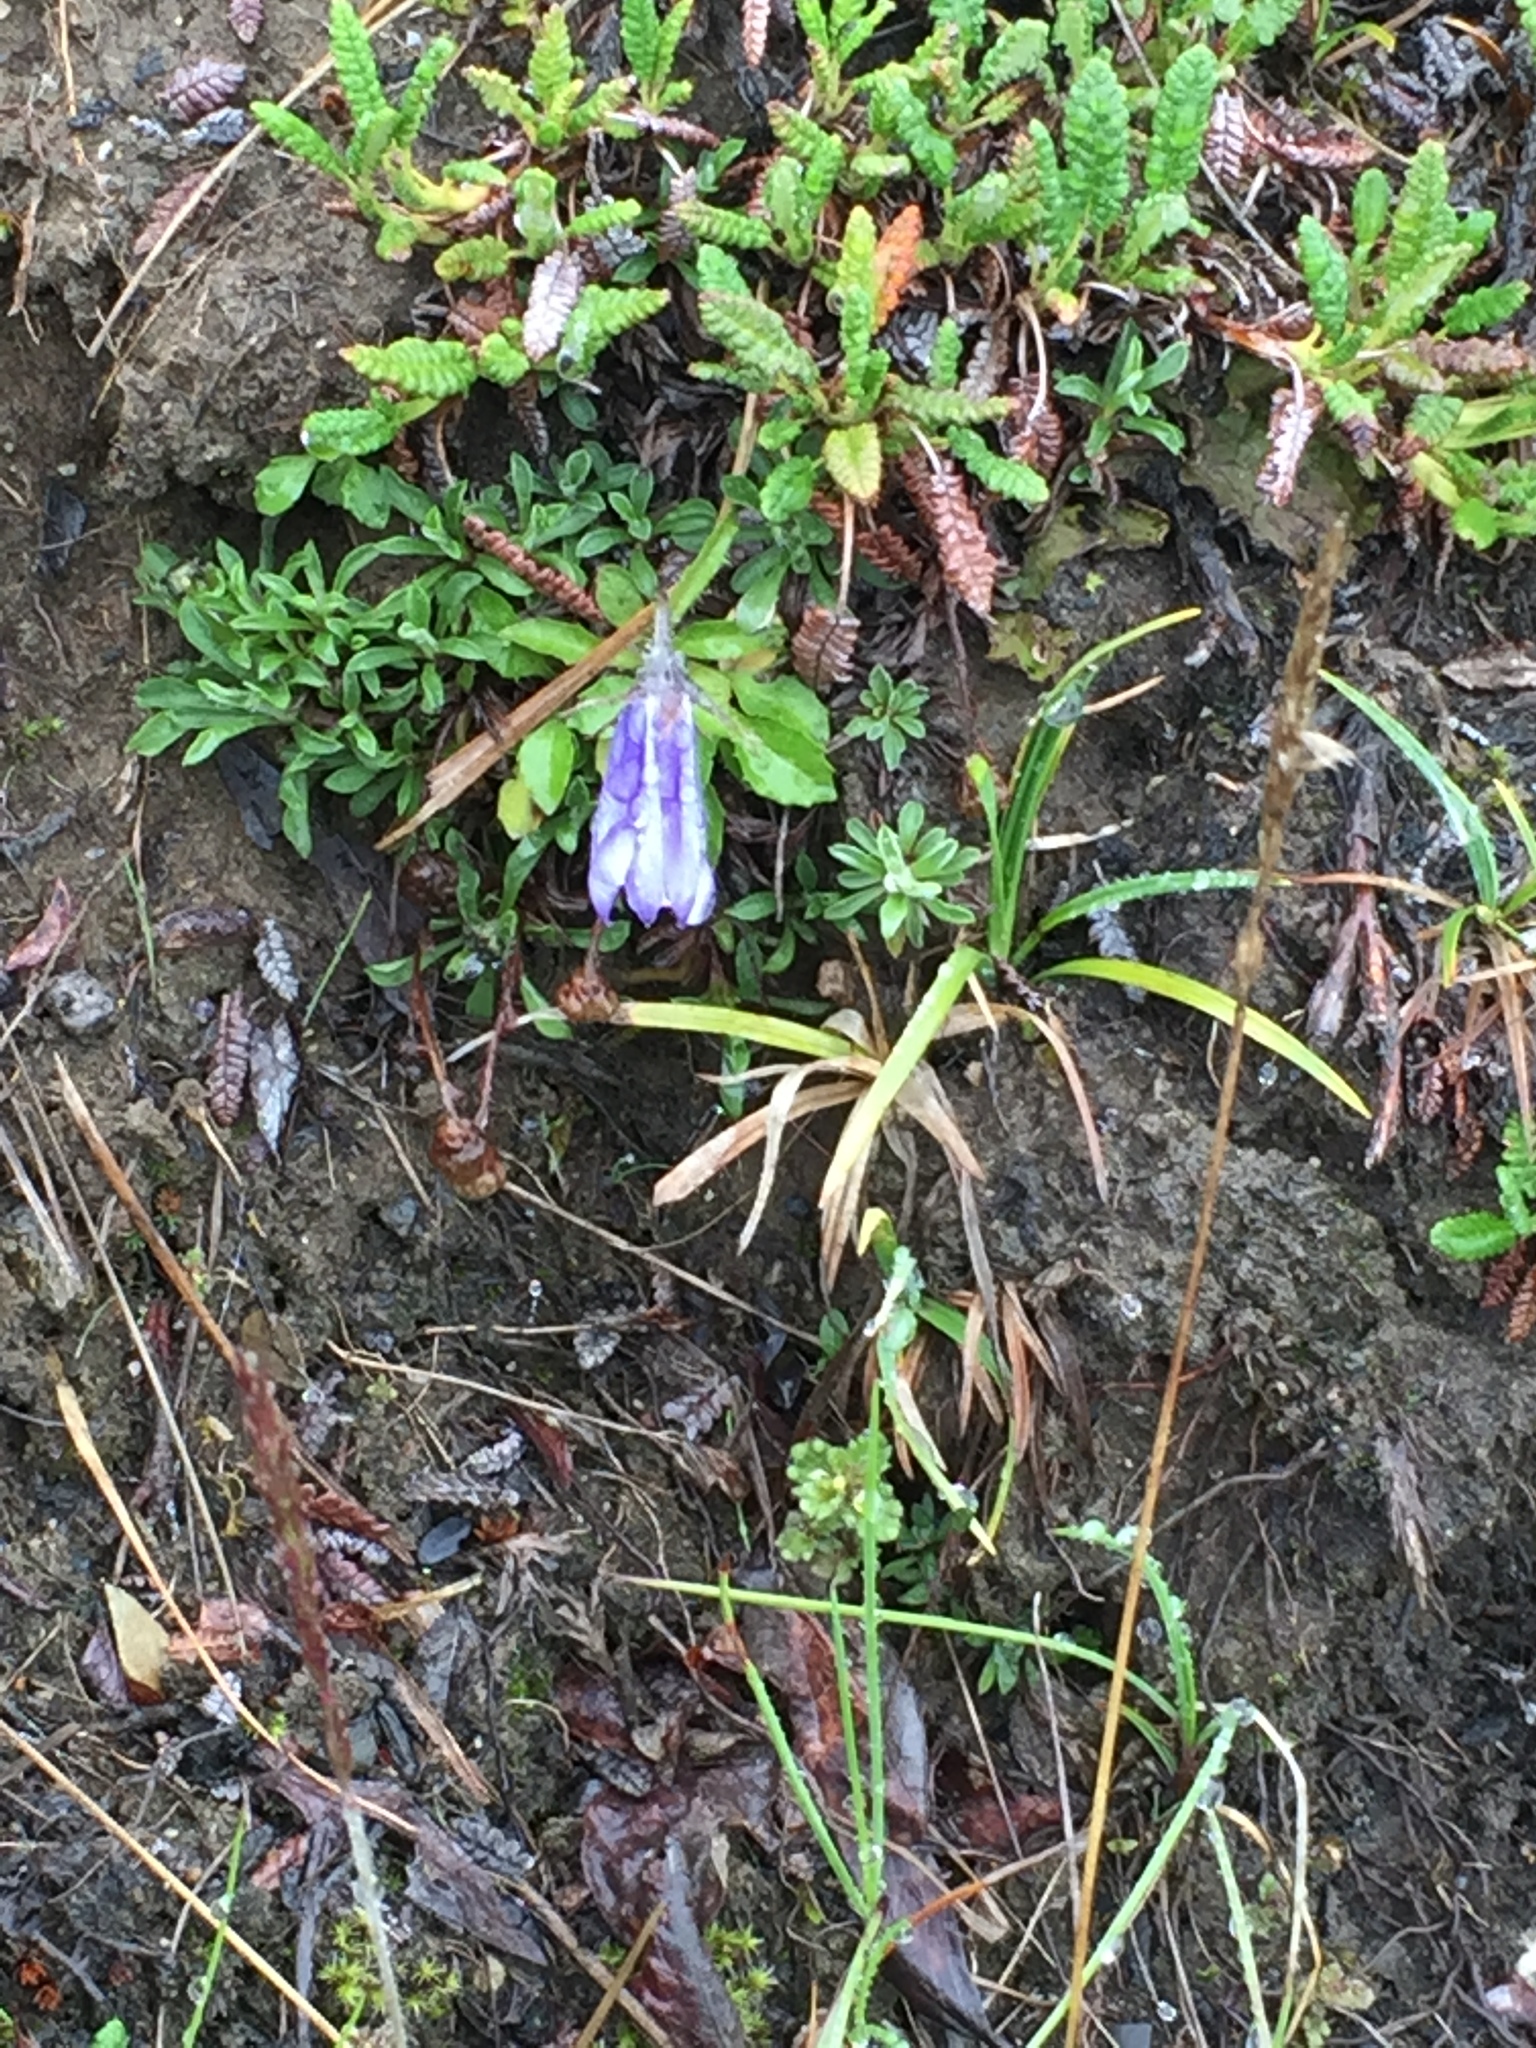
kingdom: Plantae
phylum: Tracheophyta
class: Magnoliopsida
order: Asterales
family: Campanulaceae
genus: Campanula
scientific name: Campanula lasiocarpa
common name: Mountain harebell
